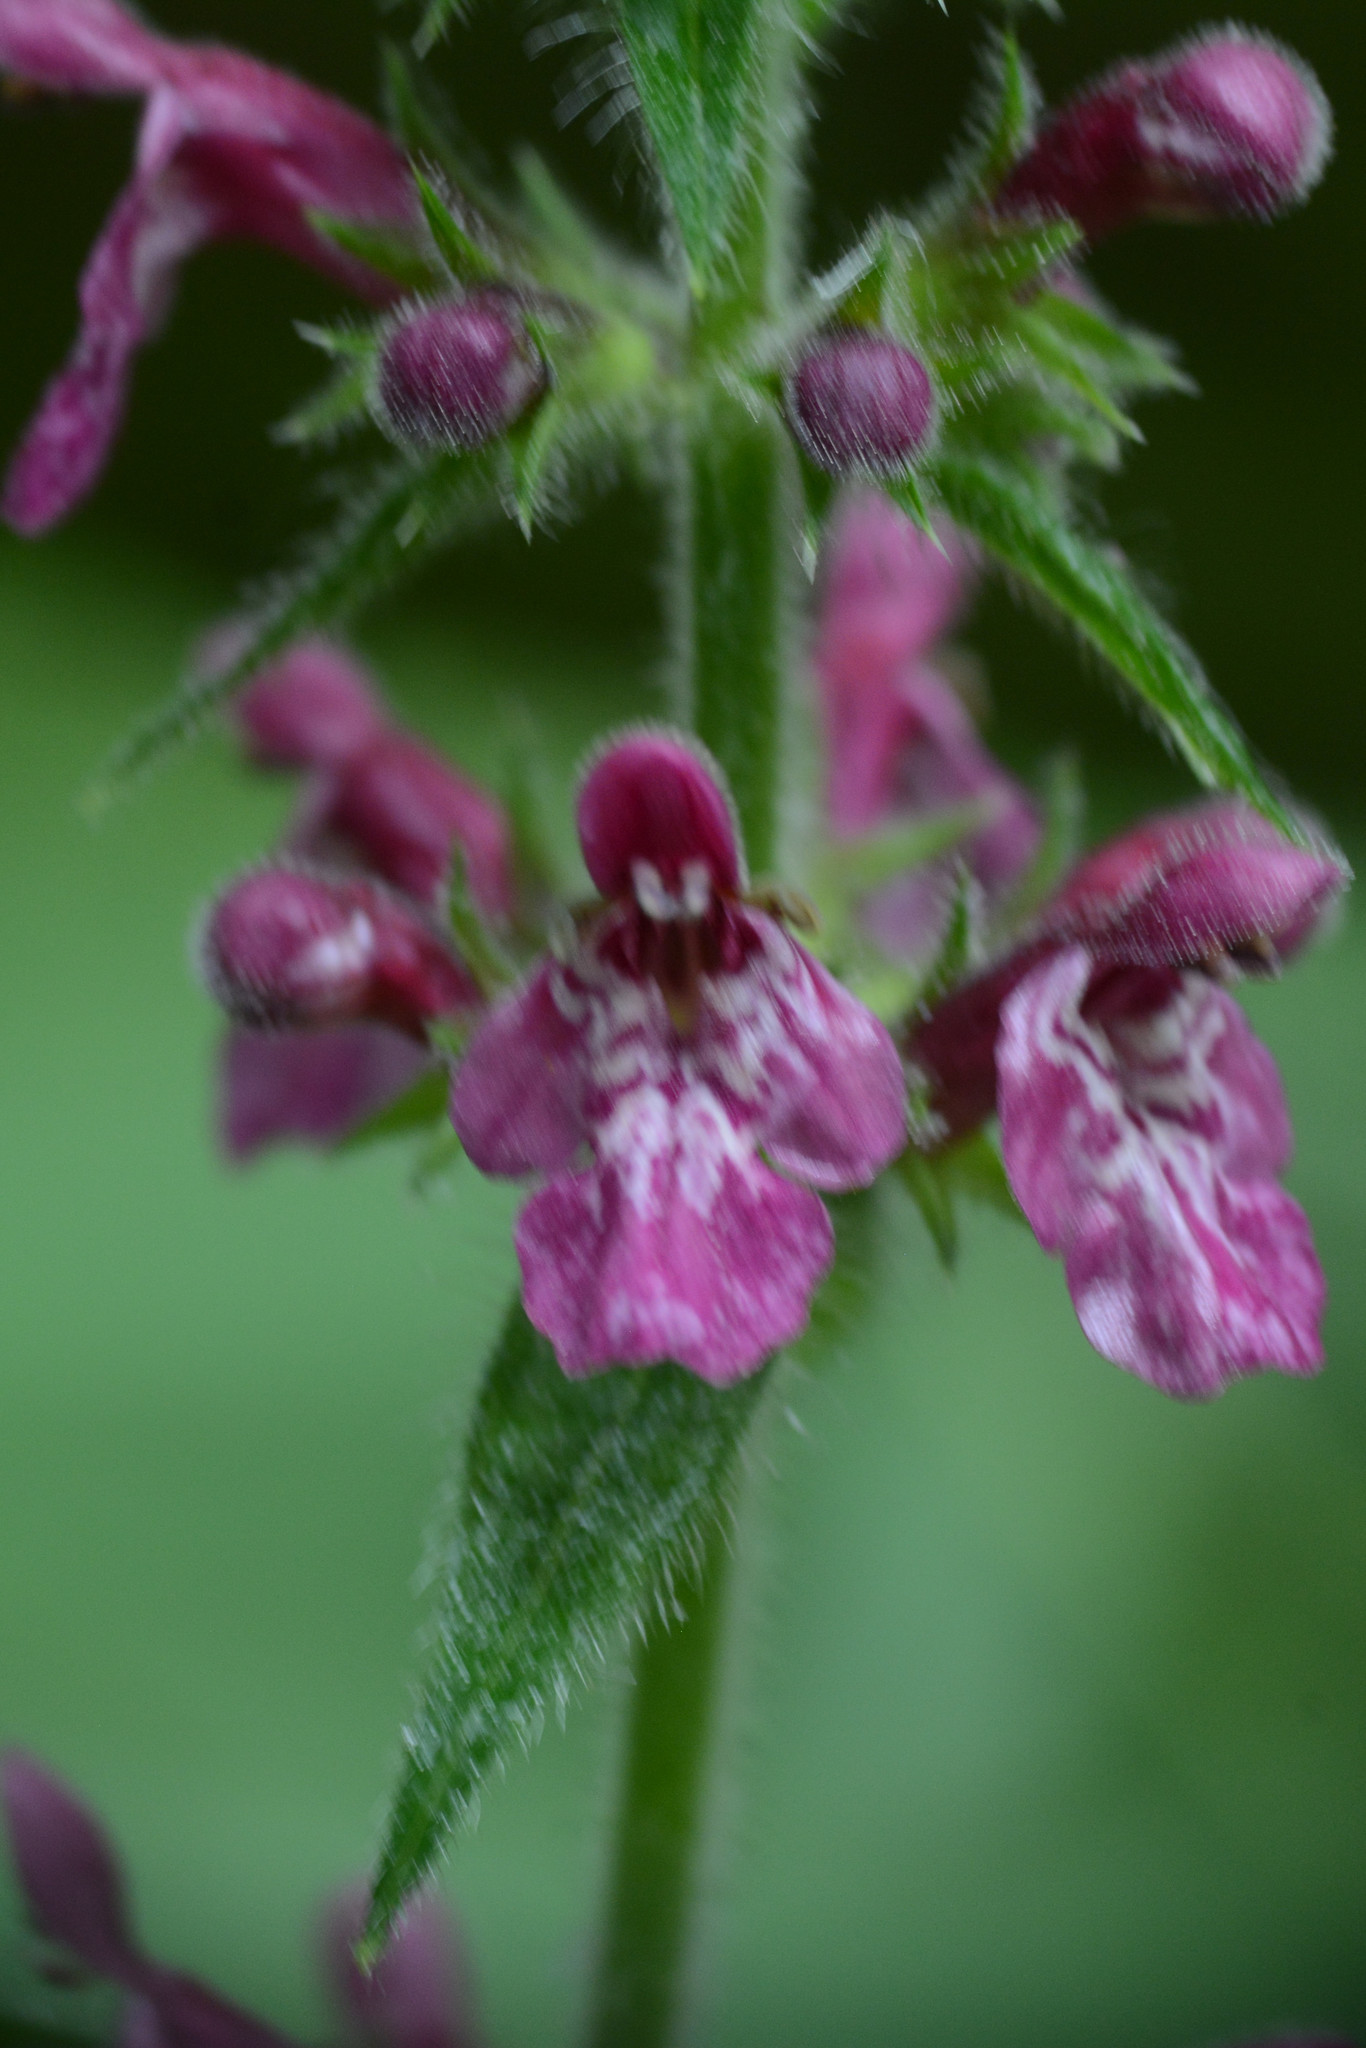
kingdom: Plantae
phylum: Tracheophyta
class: Magnoliopsida
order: Lamiales
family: Lamiaceae
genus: Stachys
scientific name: Stachys sylvatica
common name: Hedge woundwort
